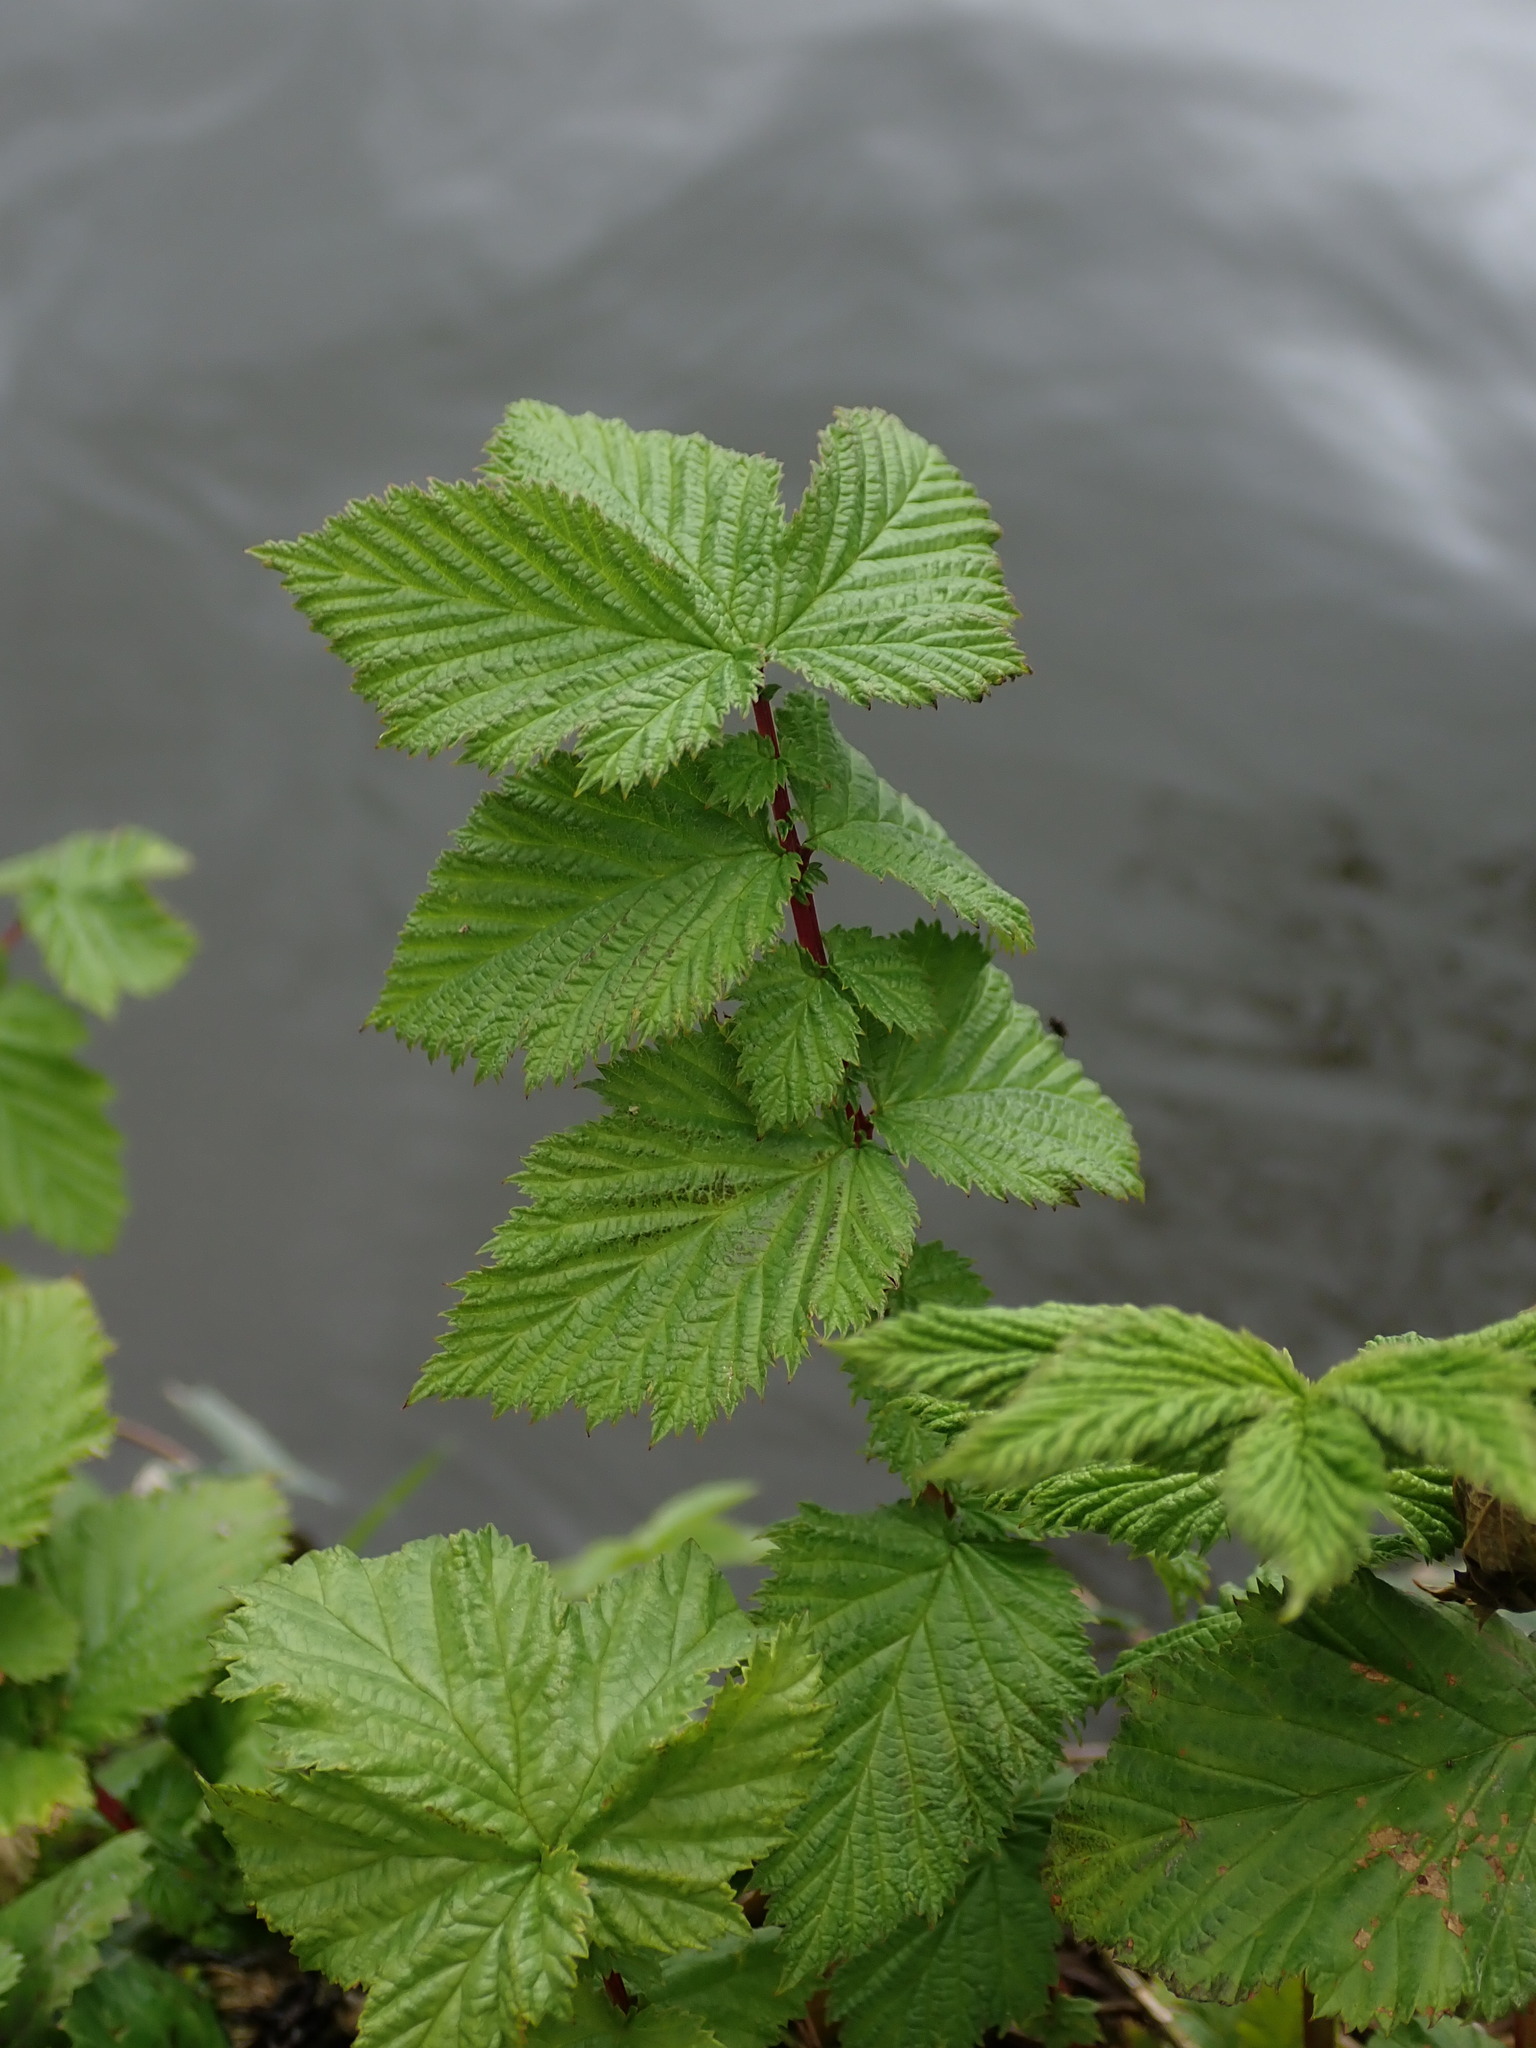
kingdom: Plantae
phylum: Tracheophyta
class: Magnoliopsida
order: Rosales
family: Rosaceae
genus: Filipendula
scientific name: Filipendula ulmaria
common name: Meadowsweet
